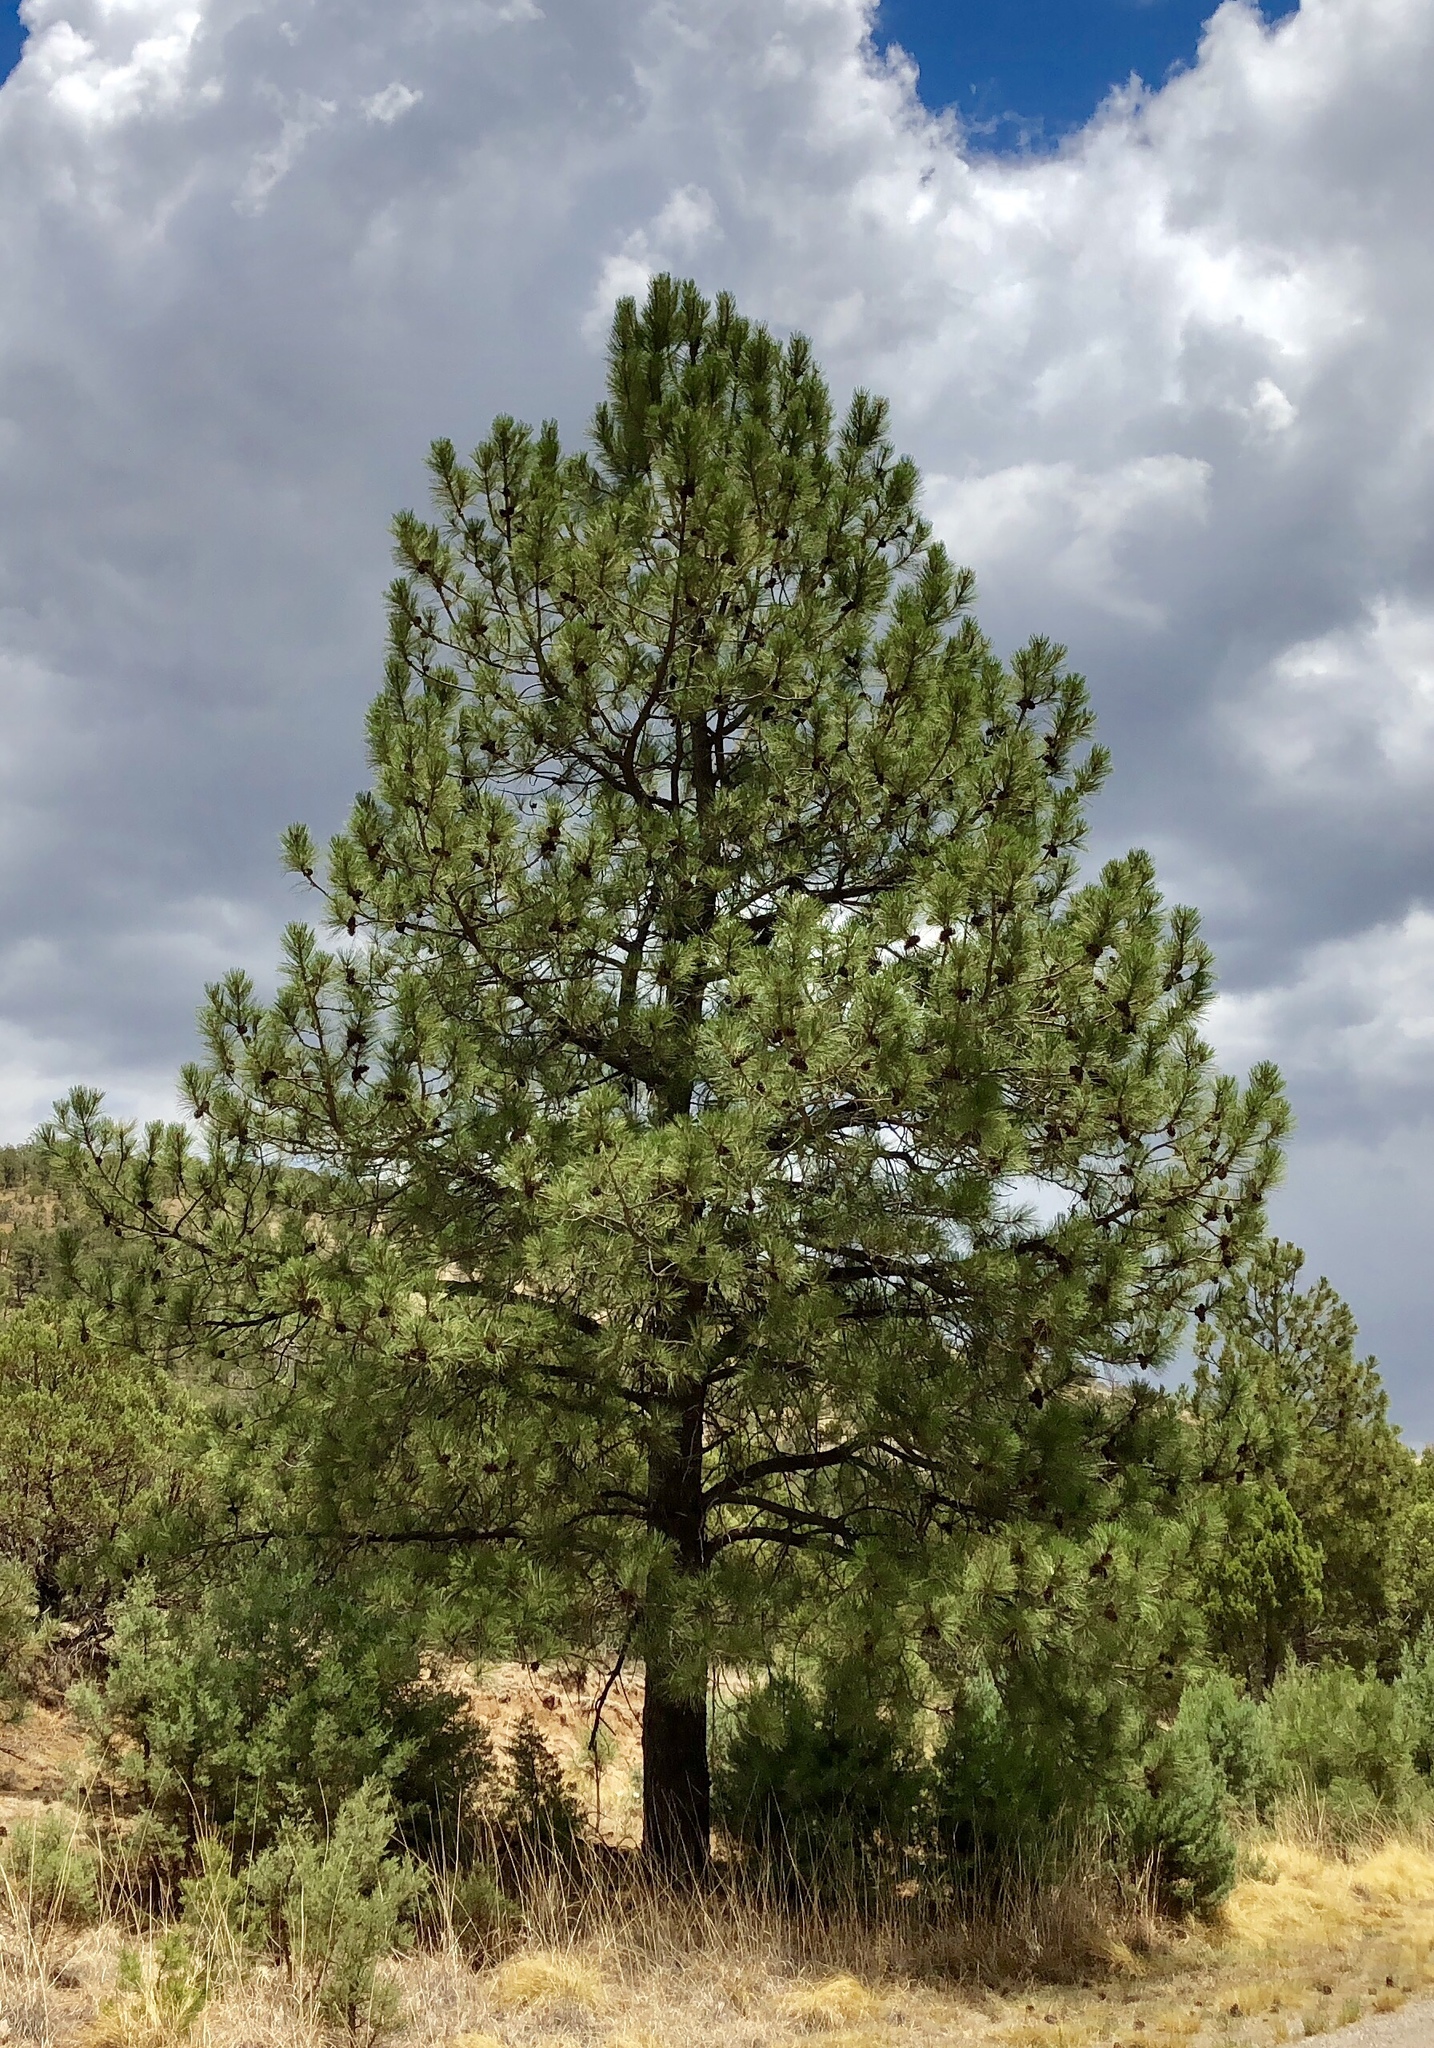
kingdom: Plantae
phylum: Tracheophyta
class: Pinopsida
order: Pinales
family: Pinaceae
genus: Pinus
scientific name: Pinus ponderosa
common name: Western yellow-pine
